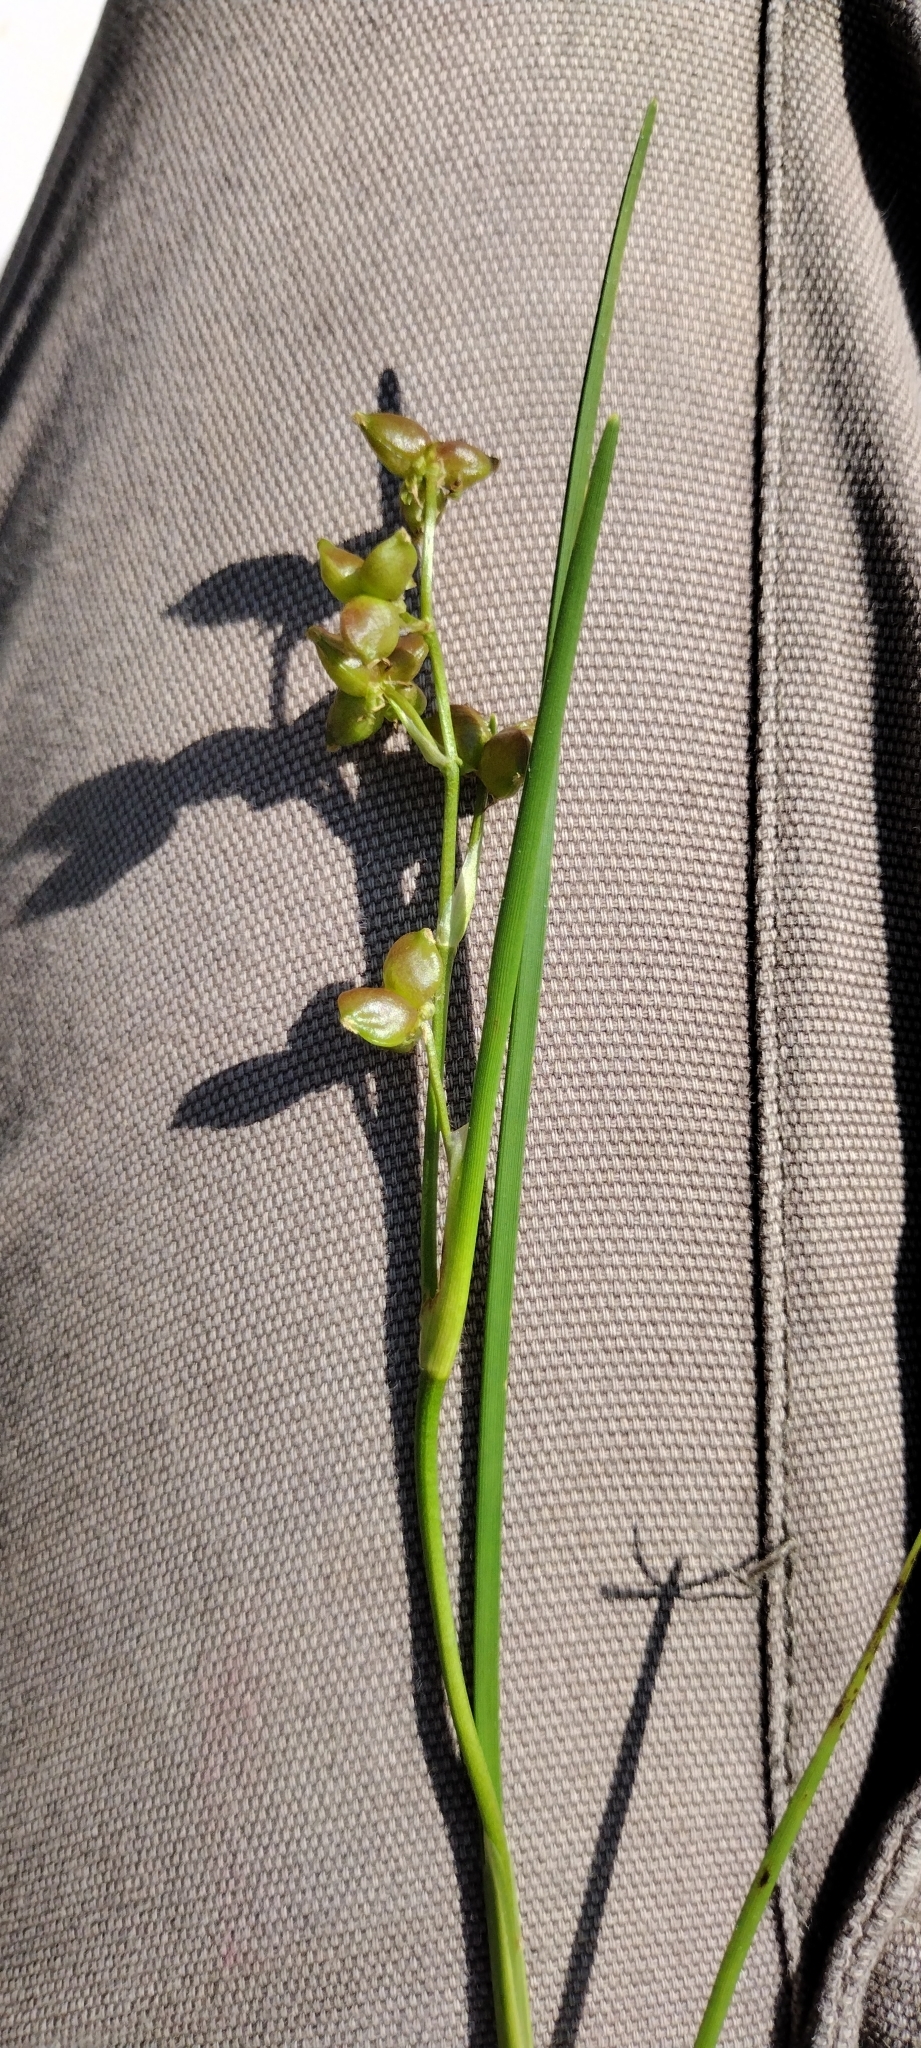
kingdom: Plantae
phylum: Tracheophyta
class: Liliopsida
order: Alismatales
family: Scheuchzeriaceae
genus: Scheuchzeria
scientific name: Scheuchzeria palustris
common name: Rannoch-rush
